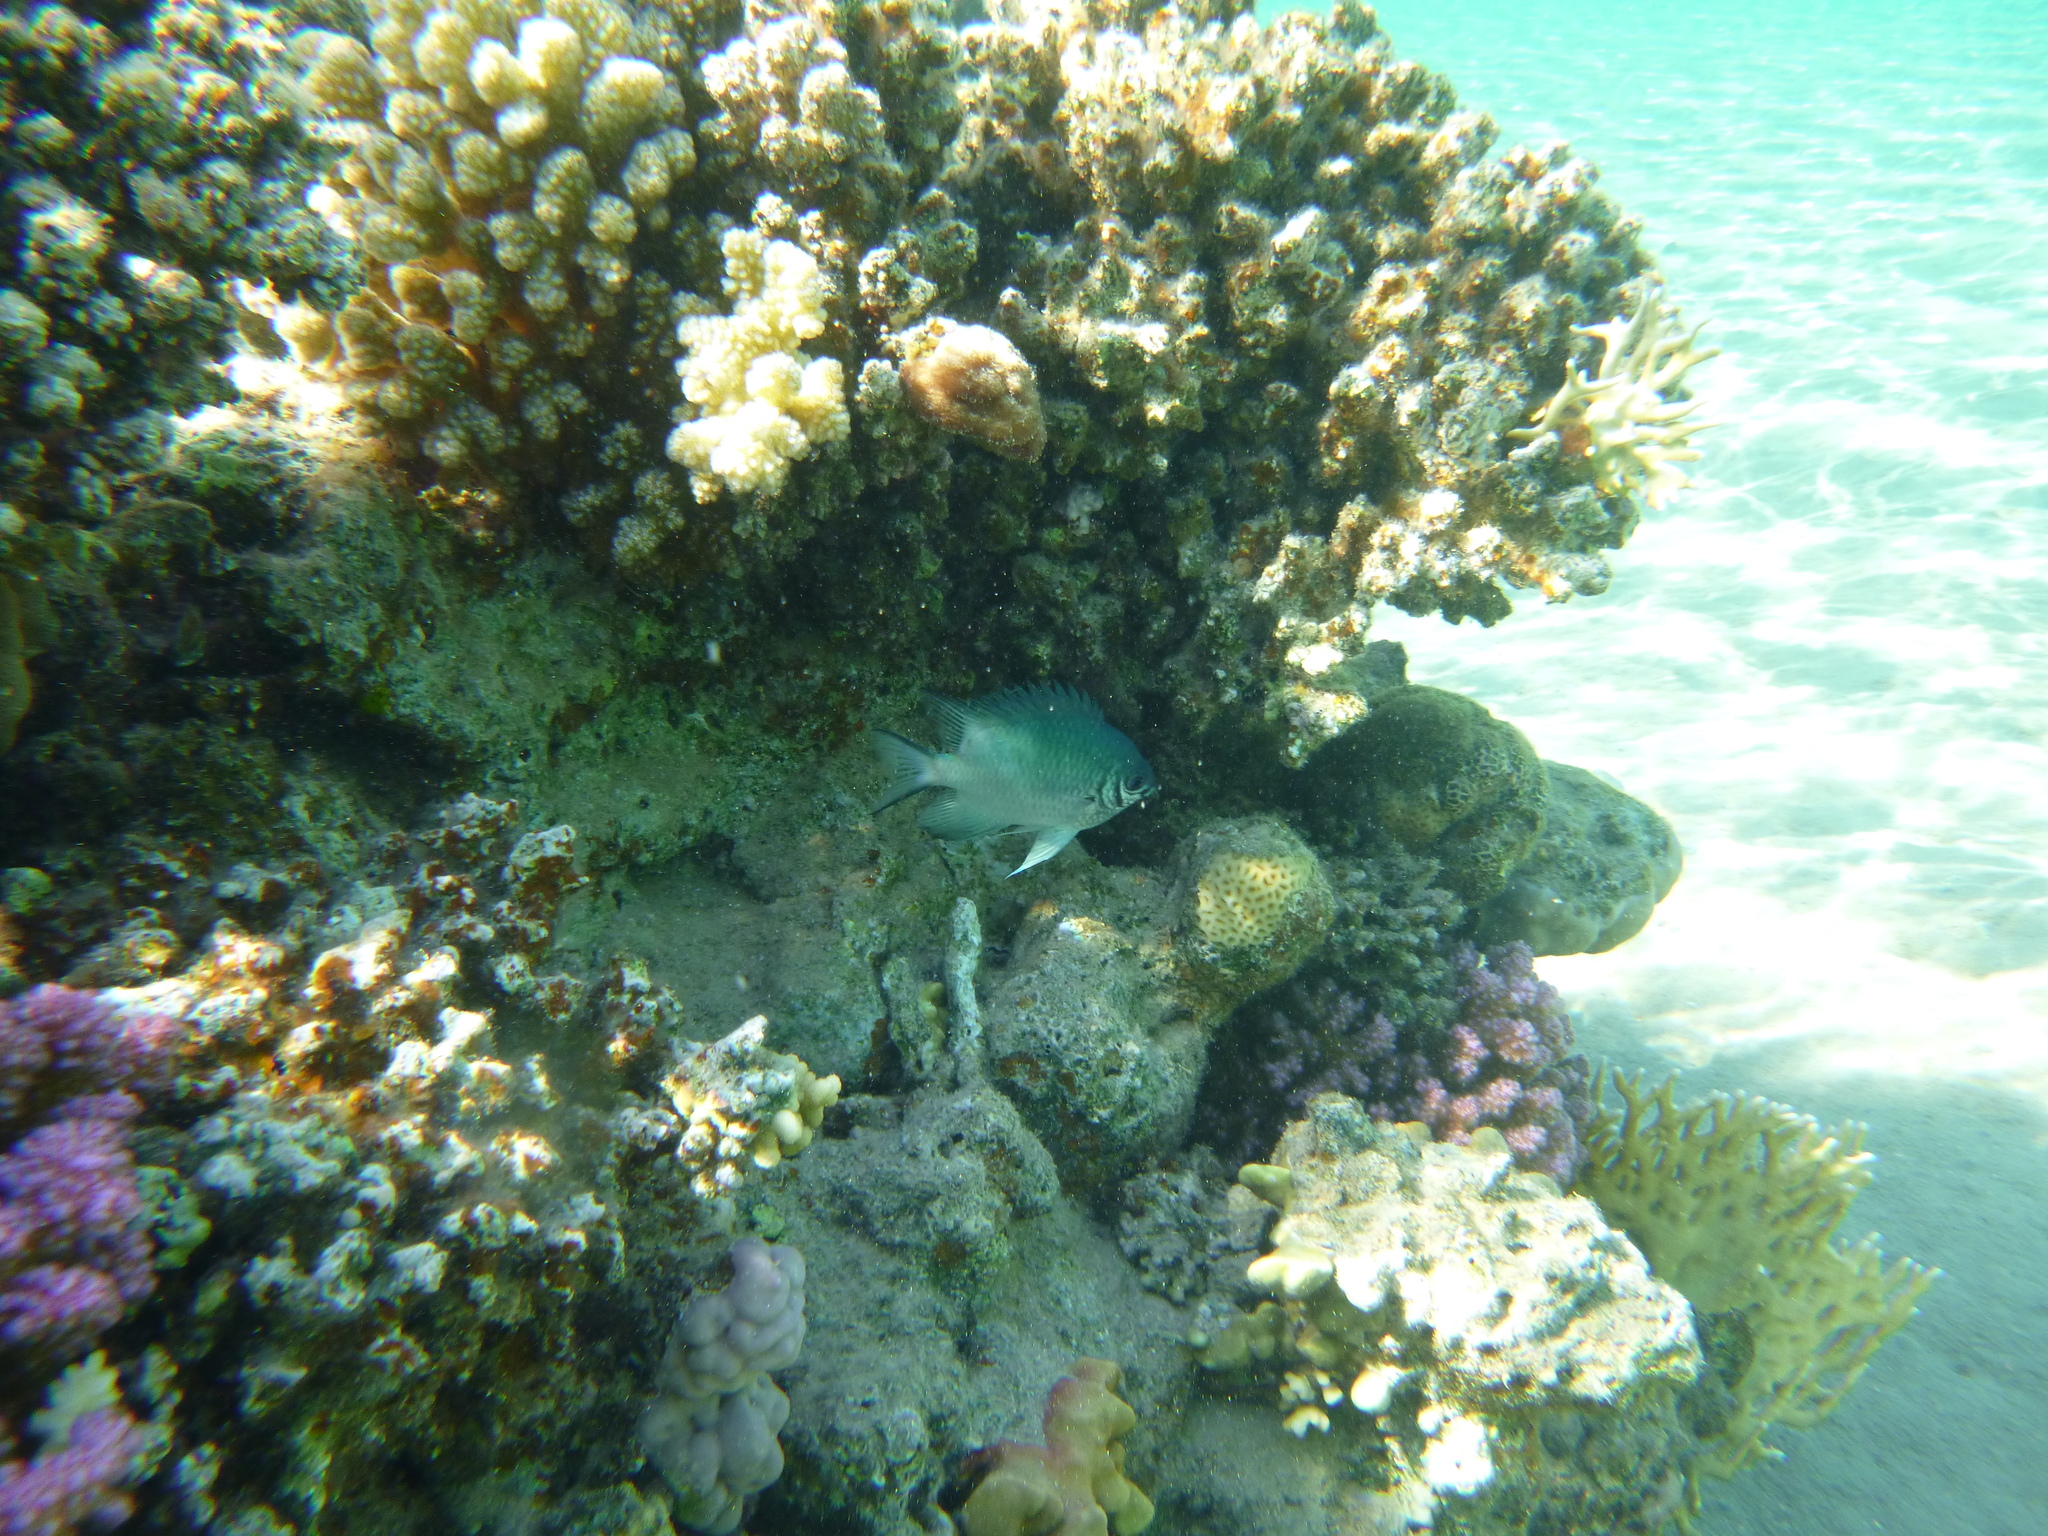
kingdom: Animalia
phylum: Chordata
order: Perciformes
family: Pomacentridae
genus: Amblyglyphidodon
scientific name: Amblyglyphidodon indicus
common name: Maldives damselfish
